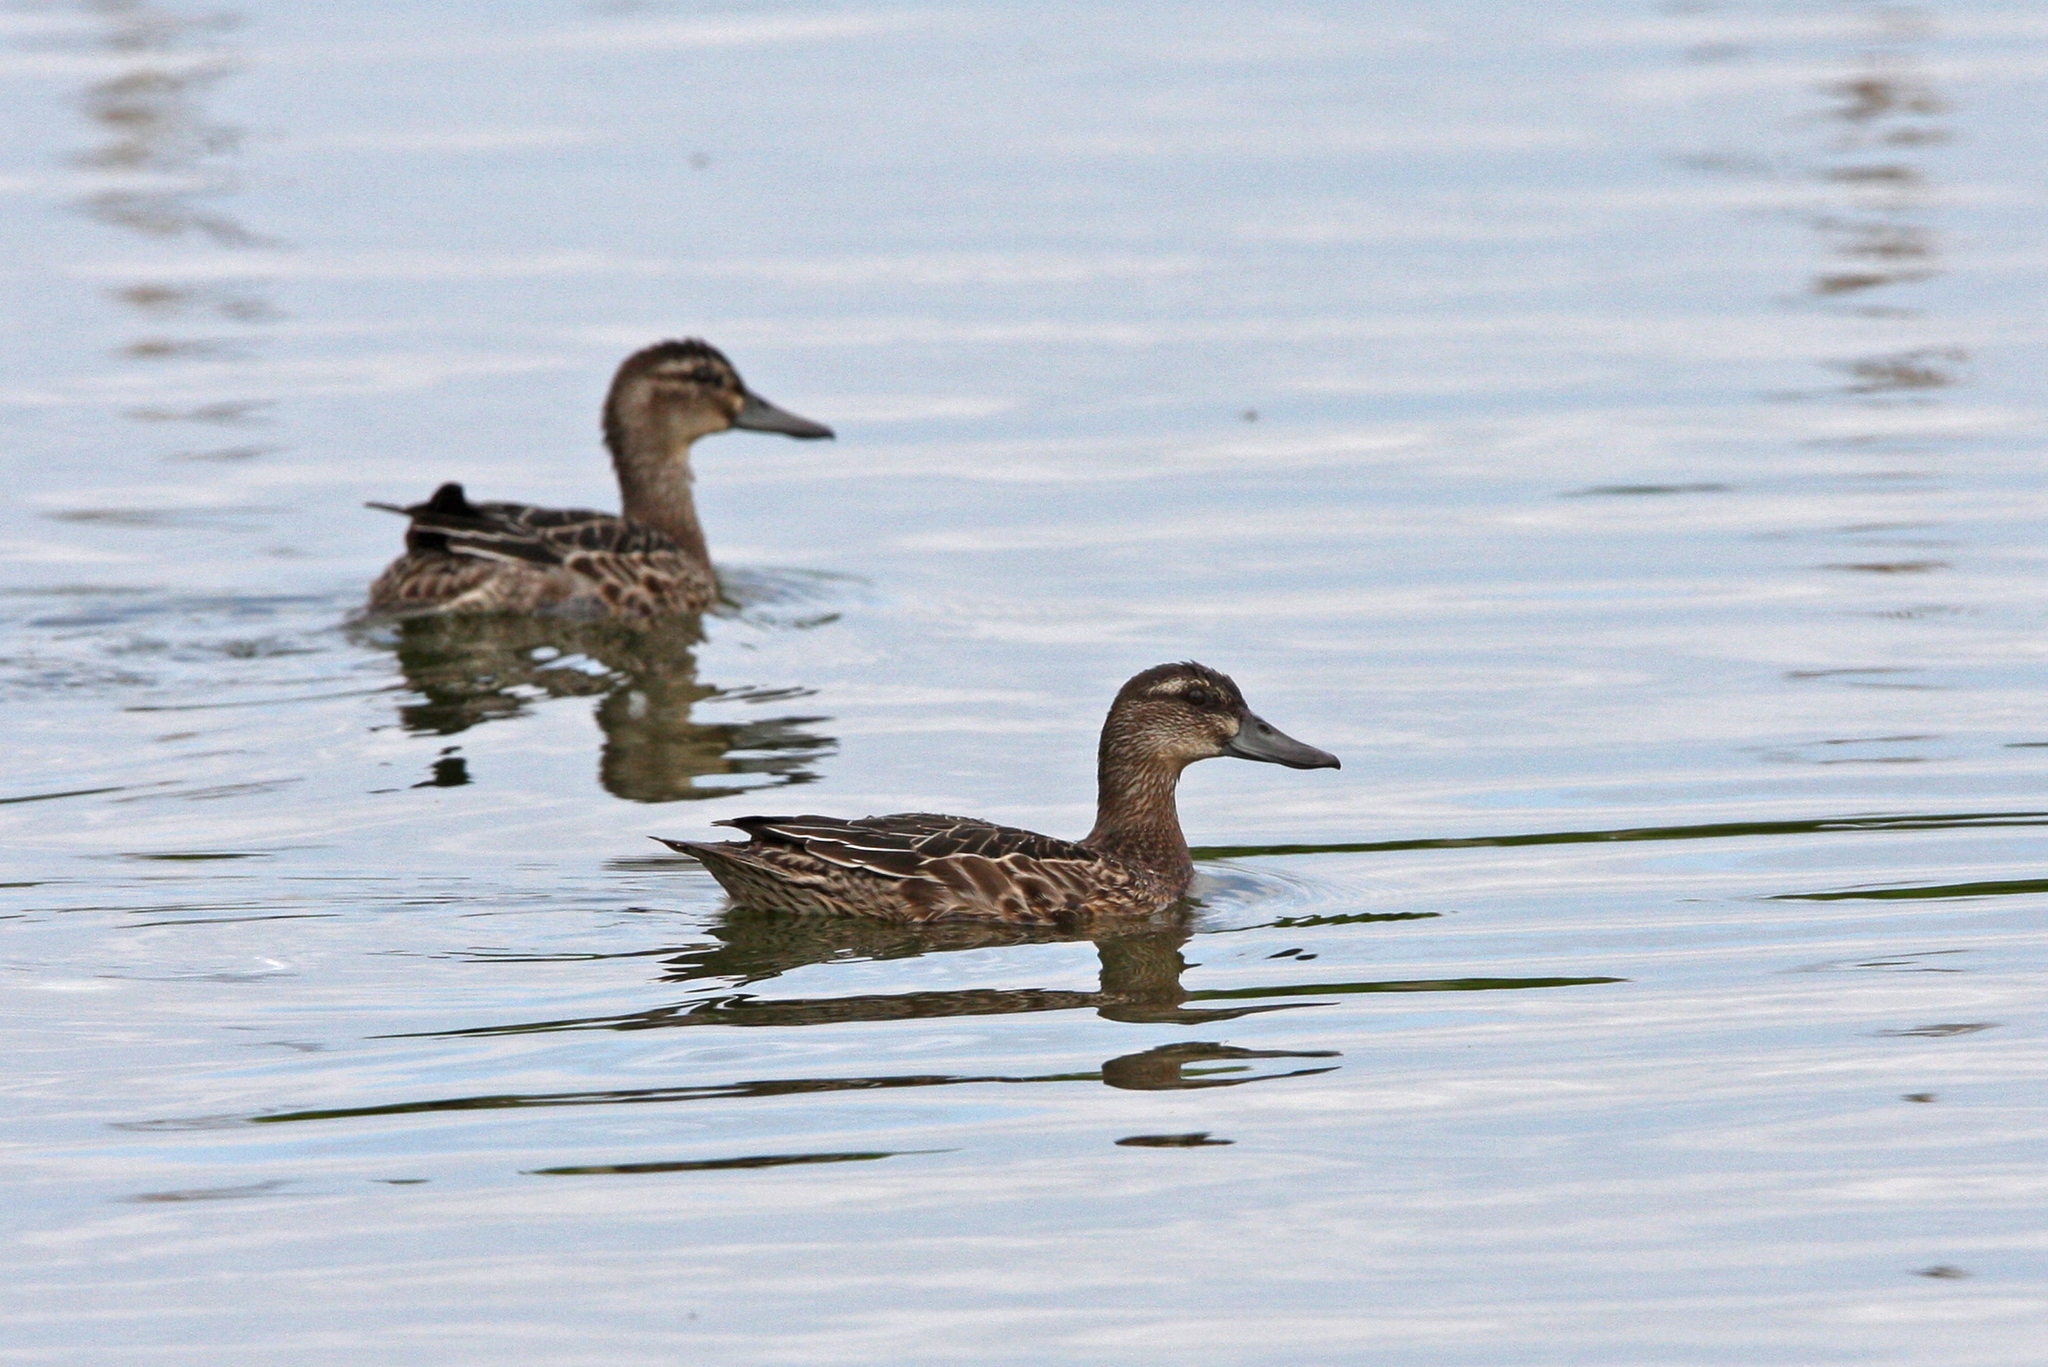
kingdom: Animalia
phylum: Chordata
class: Aves
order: Anseriformes
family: Anatidae
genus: Spatula
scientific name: Spatula querquedula
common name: Garganey
